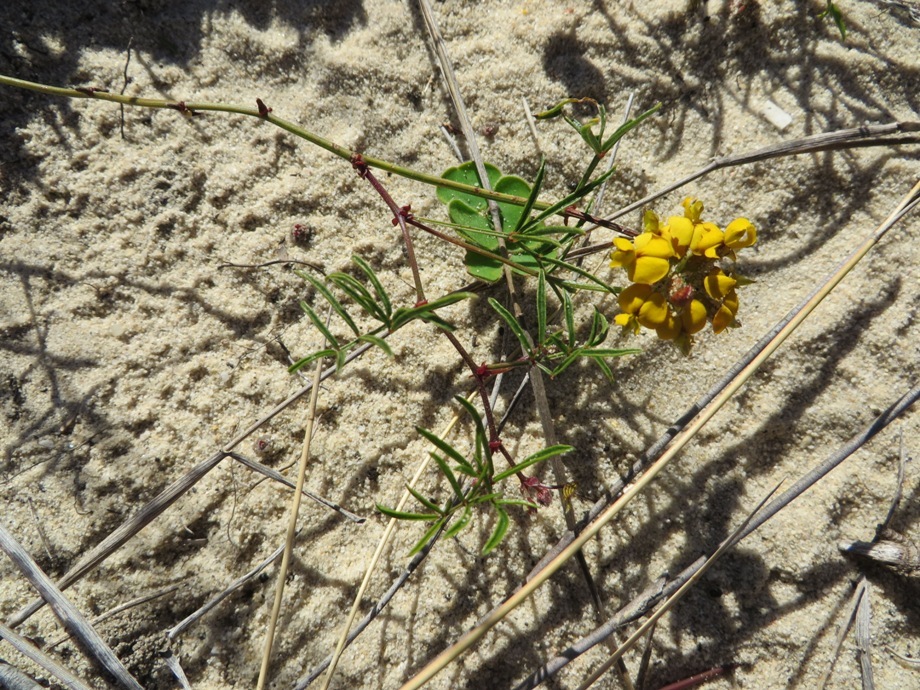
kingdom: Plantae
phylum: Tracheophyta
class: Magnoliopsida
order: Fabales
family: Fabaceae
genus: Rhynchosia
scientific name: Rhynchosia ferulifolia
